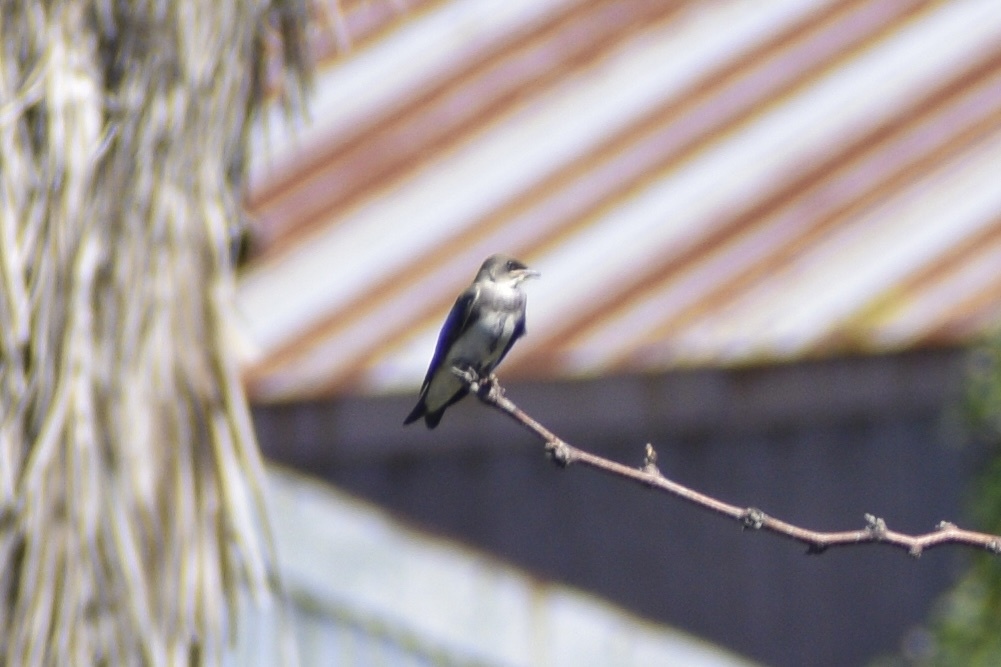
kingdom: Animalia
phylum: Chordata
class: Aves
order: Passeriformes
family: Hirundinidae
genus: Progne
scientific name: Progne tapera
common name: Brown-chested martin
